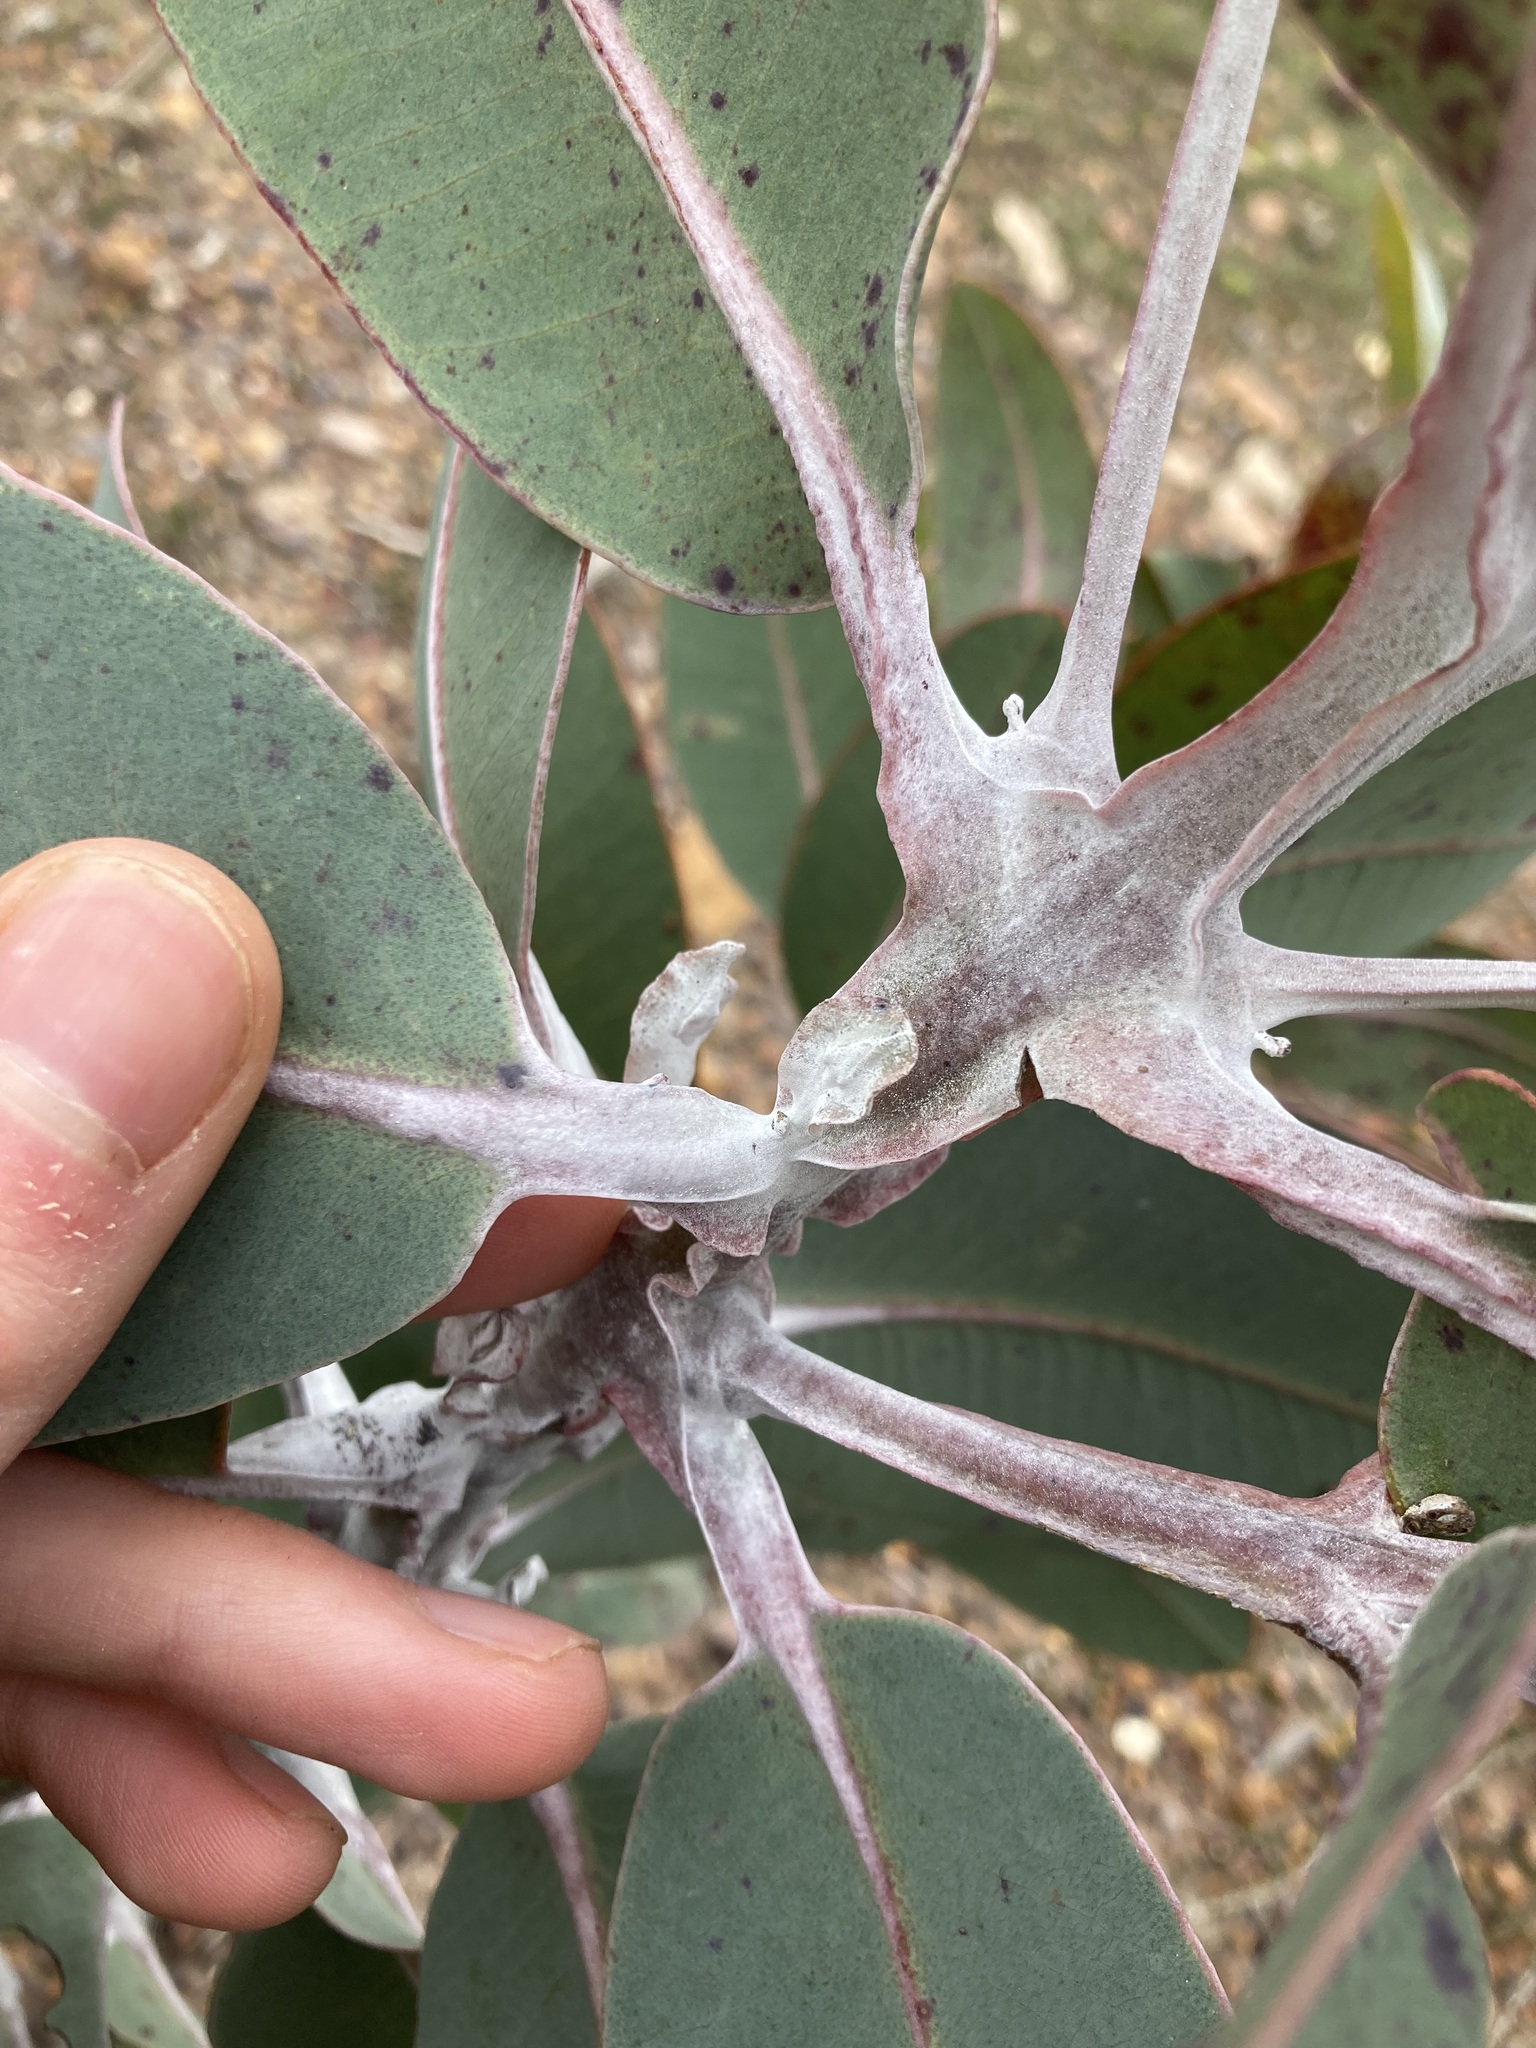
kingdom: Plantae
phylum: Tracheophyta
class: Magnoliopsida
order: Myrtales
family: Myrtaceae
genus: Eucalyptus
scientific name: Eucalyptus tetragona
